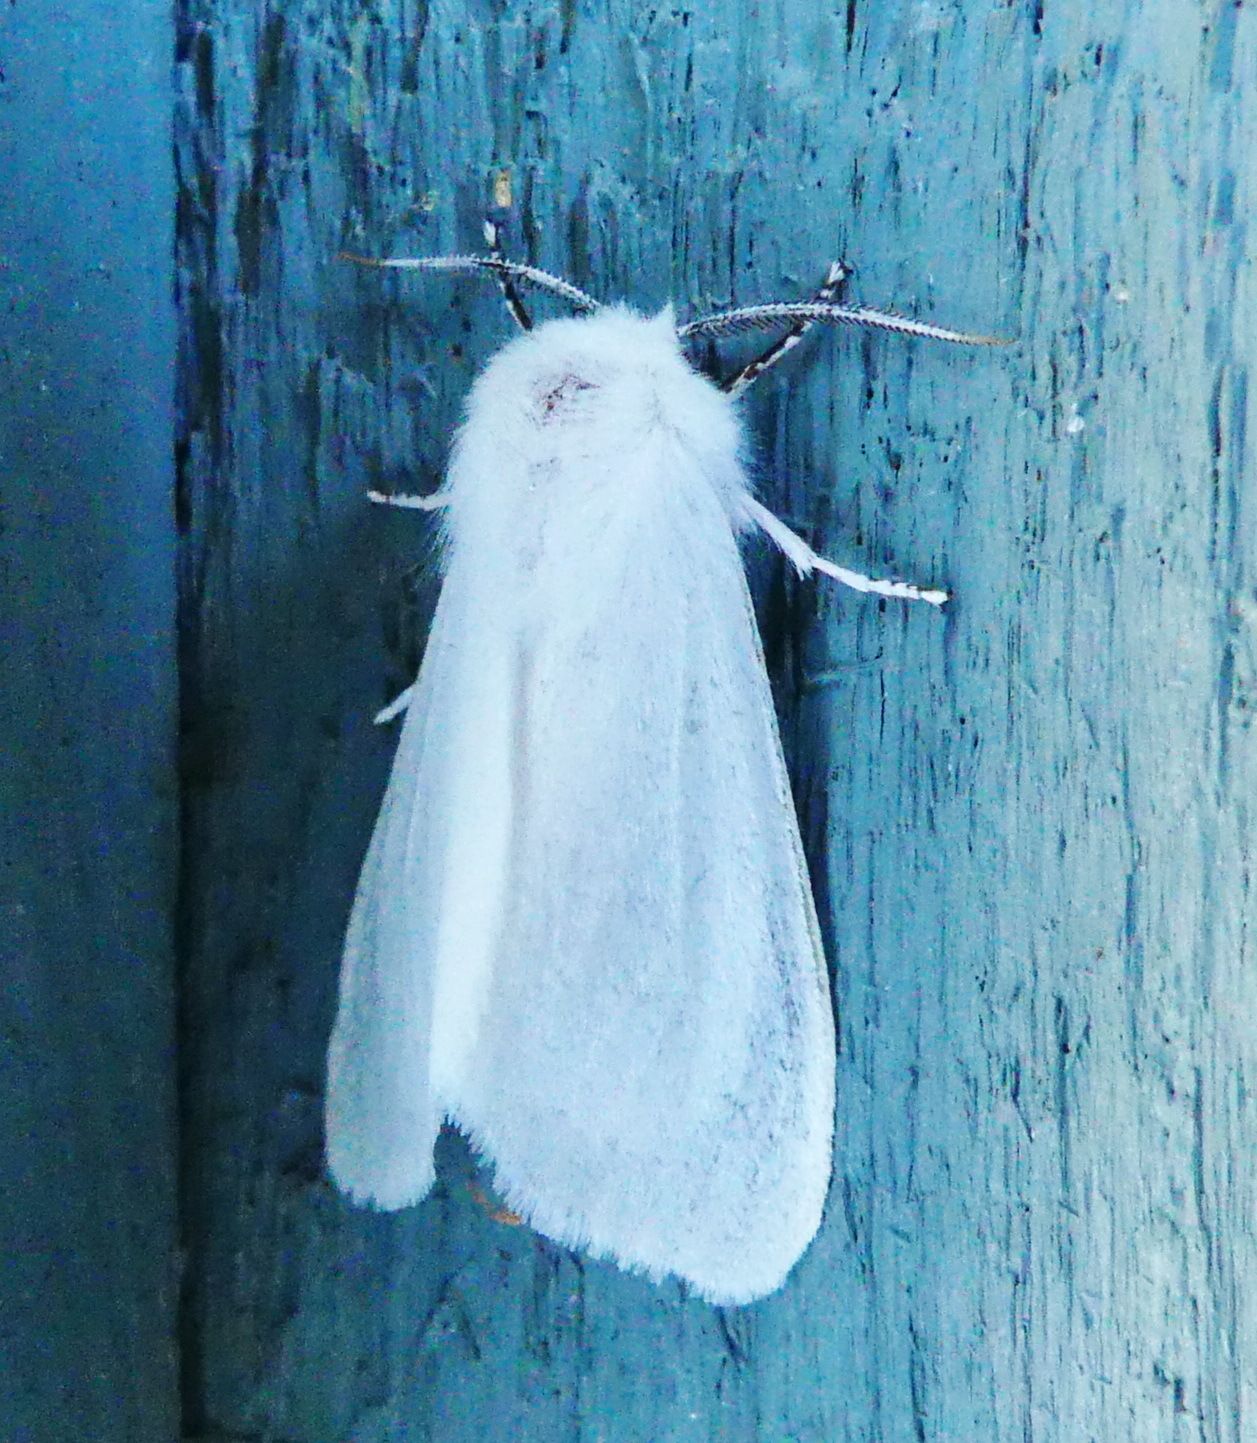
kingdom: Animalia
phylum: Arthropoda
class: Insecta
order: Lepidoptera
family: Erebidae
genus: Hyphantria
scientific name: Hyphantria cunea
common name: American white moth
